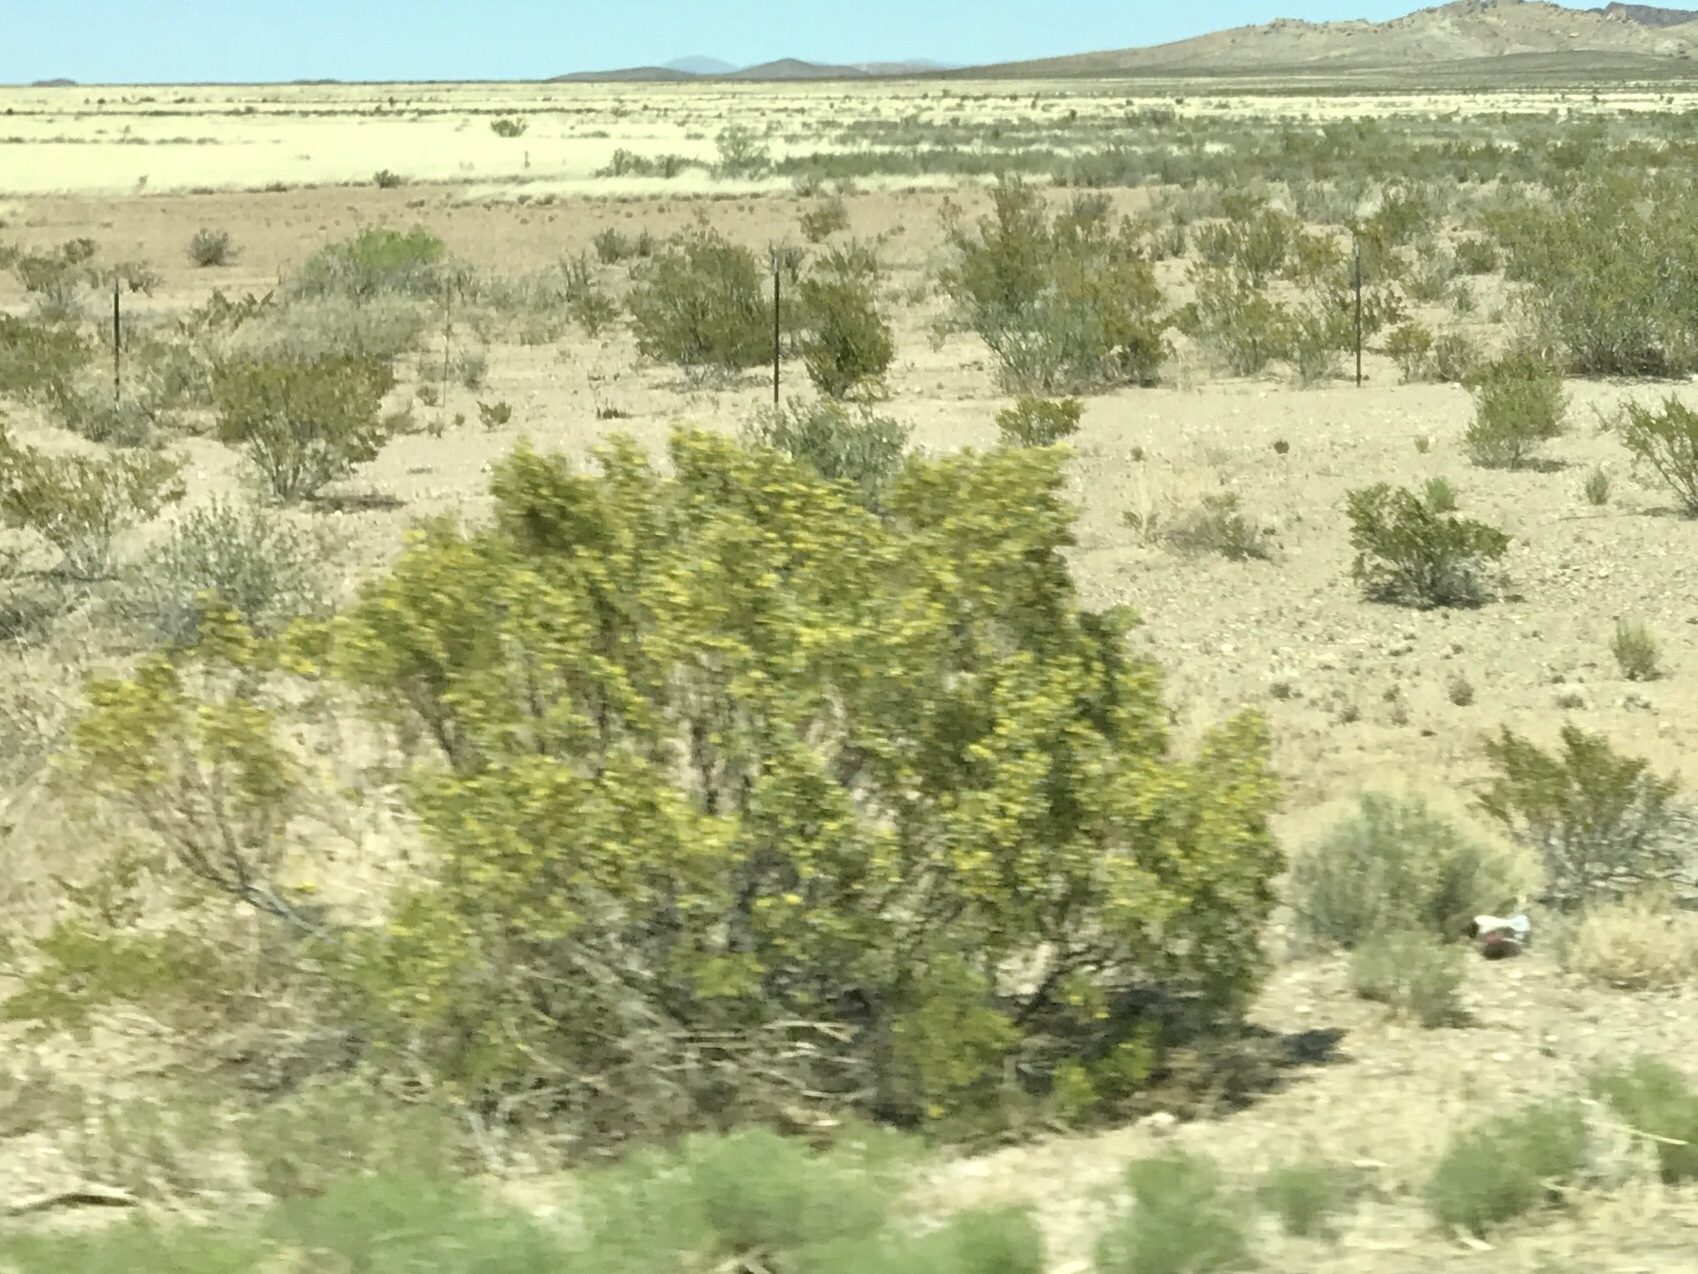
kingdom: Plantae
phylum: Tracheophyta
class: Magnoliopsida
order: Zygophyllales
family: Zygophyllaceae
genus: Larrea
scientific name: Larrea tridentata
